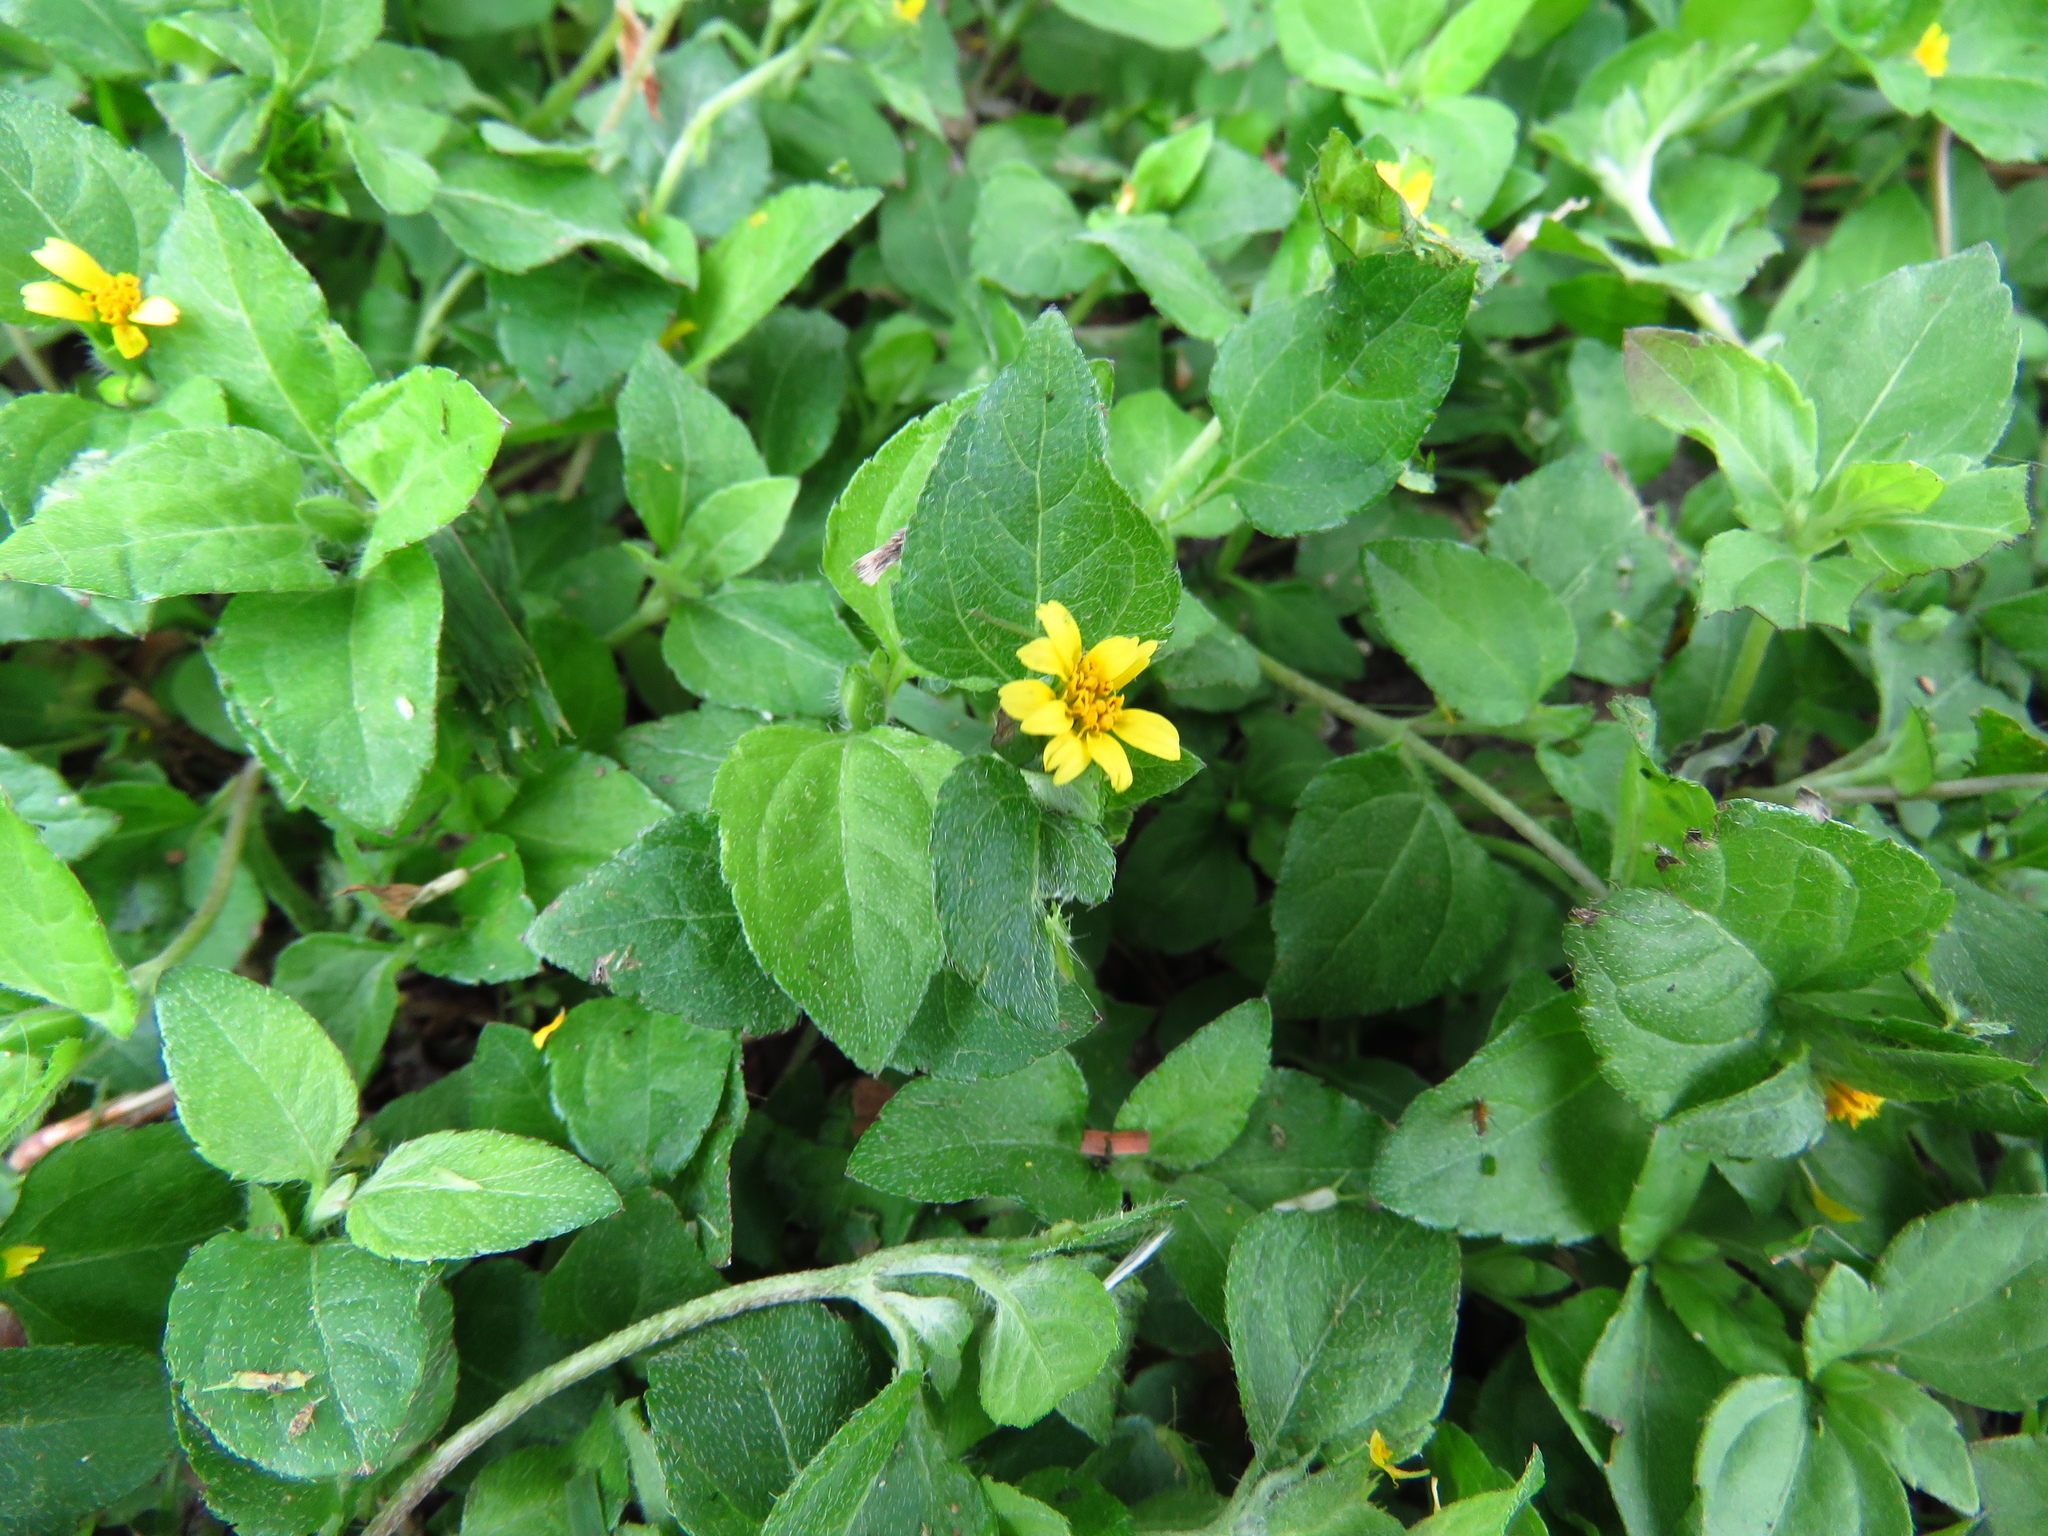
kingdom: Plantae
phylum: Tracheophyta
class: Magnoliopsida
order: Asterales
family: Asteraceae
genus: Calyptocarpus
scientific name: Calyptocarpus vialis
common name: Straggler daisy
